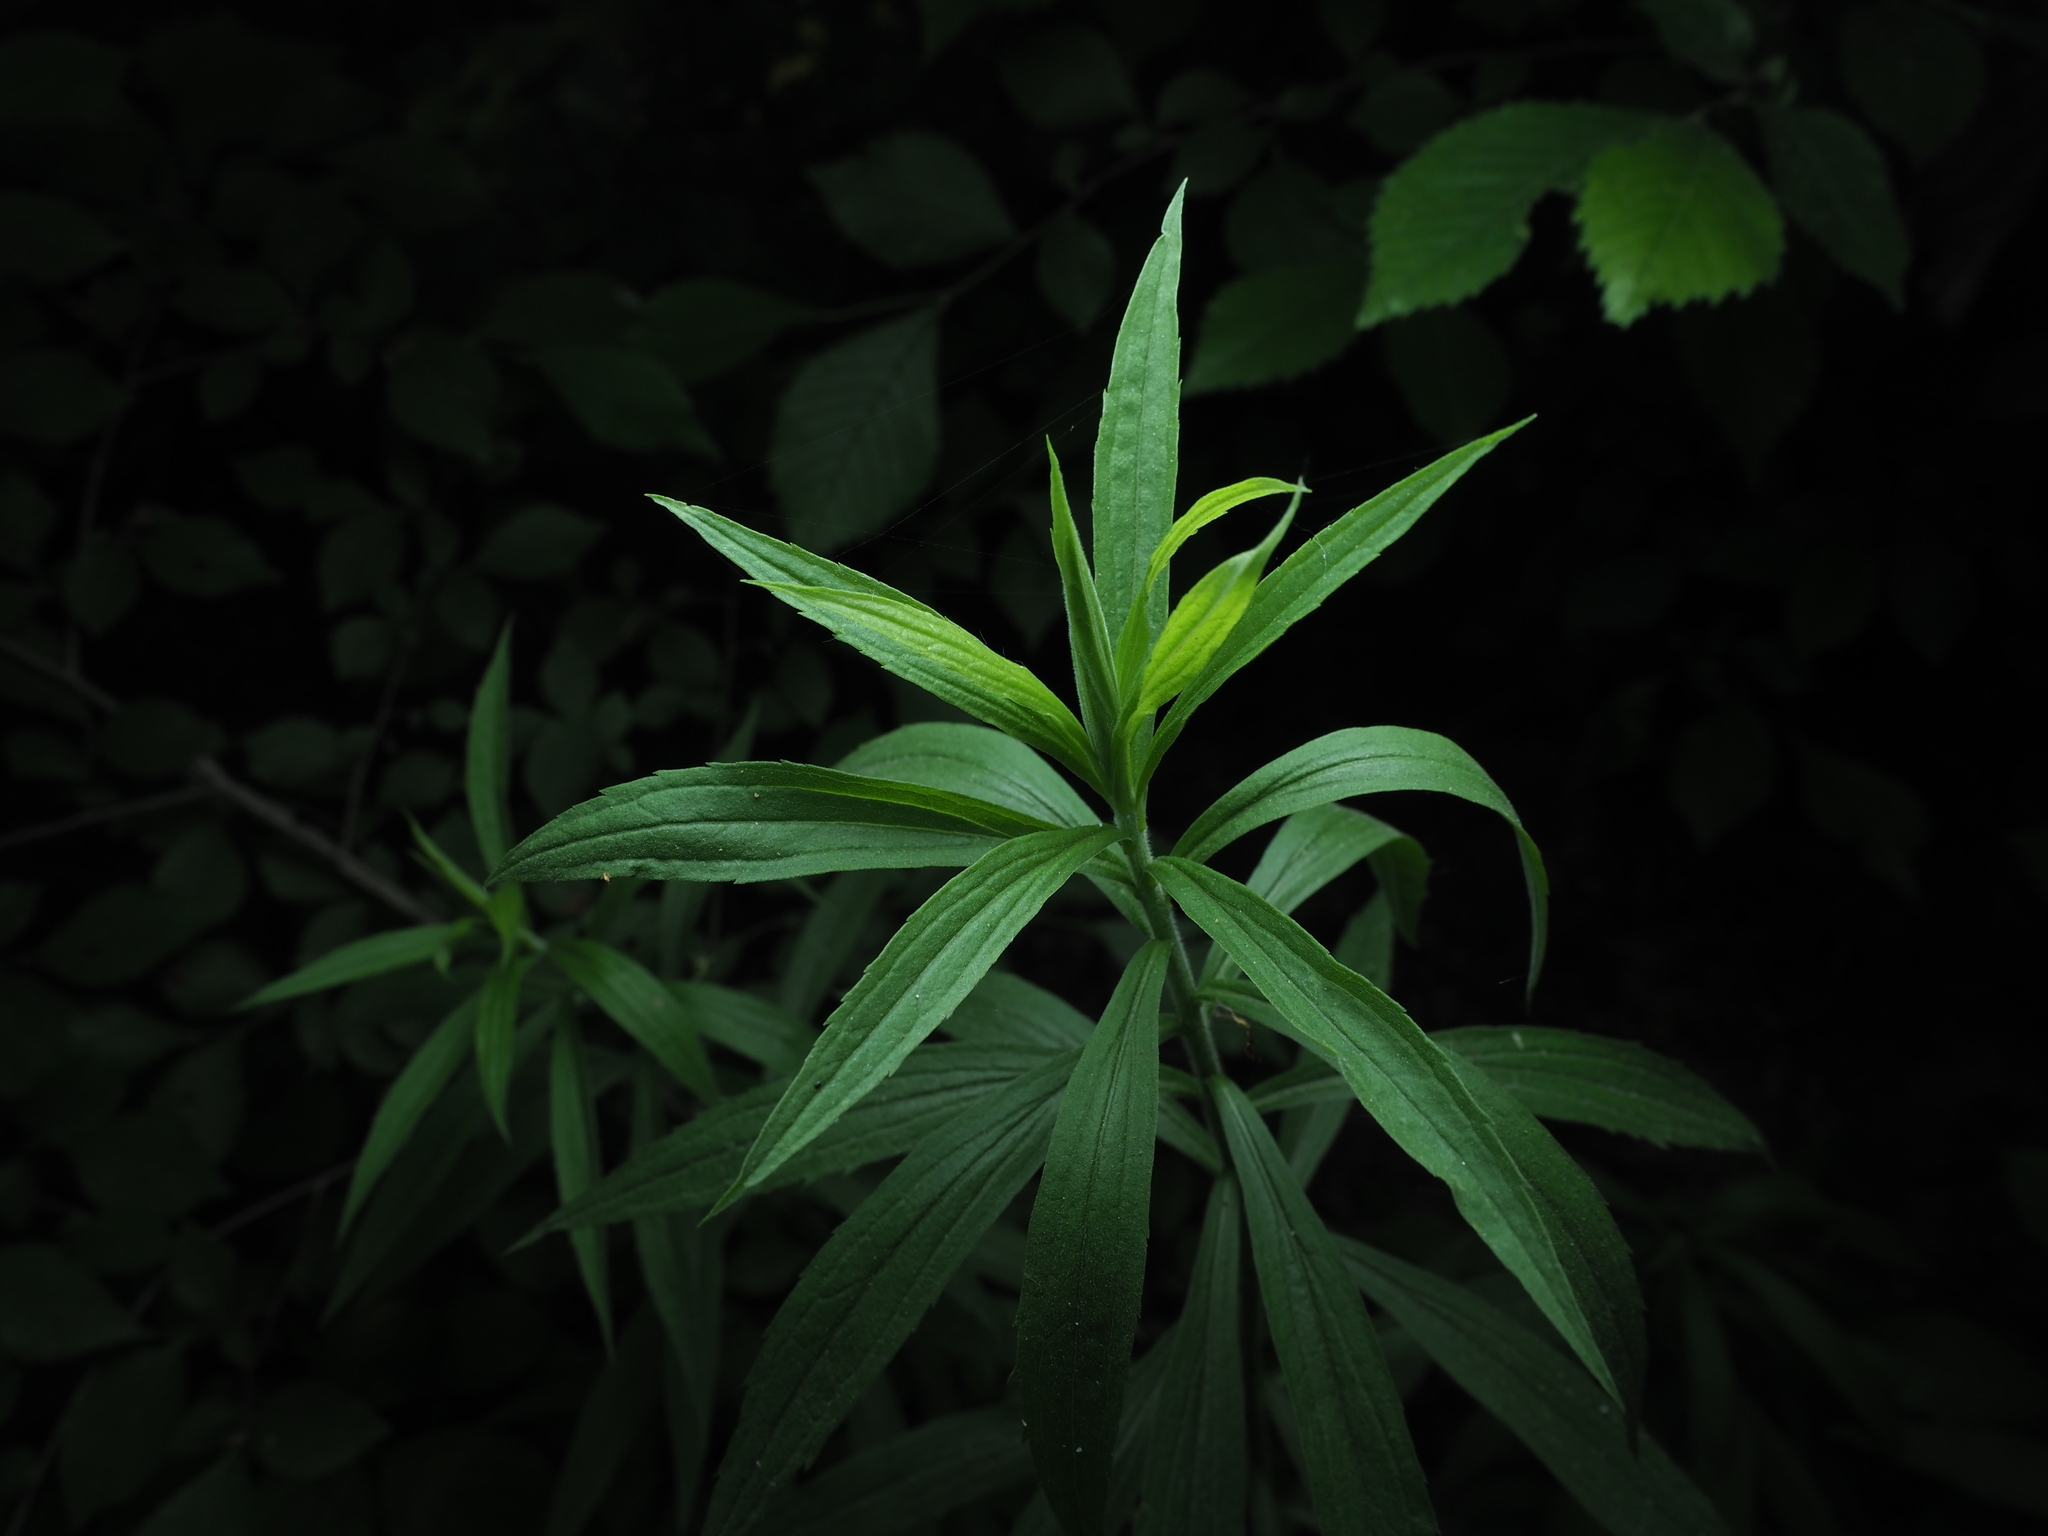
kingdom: Plantae
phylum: Tracheophyta
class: Magnoliopsida
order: Asterales
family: Asteraceae
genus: Solidago
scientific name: Solidago canadensis
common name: Canada goldenrod
